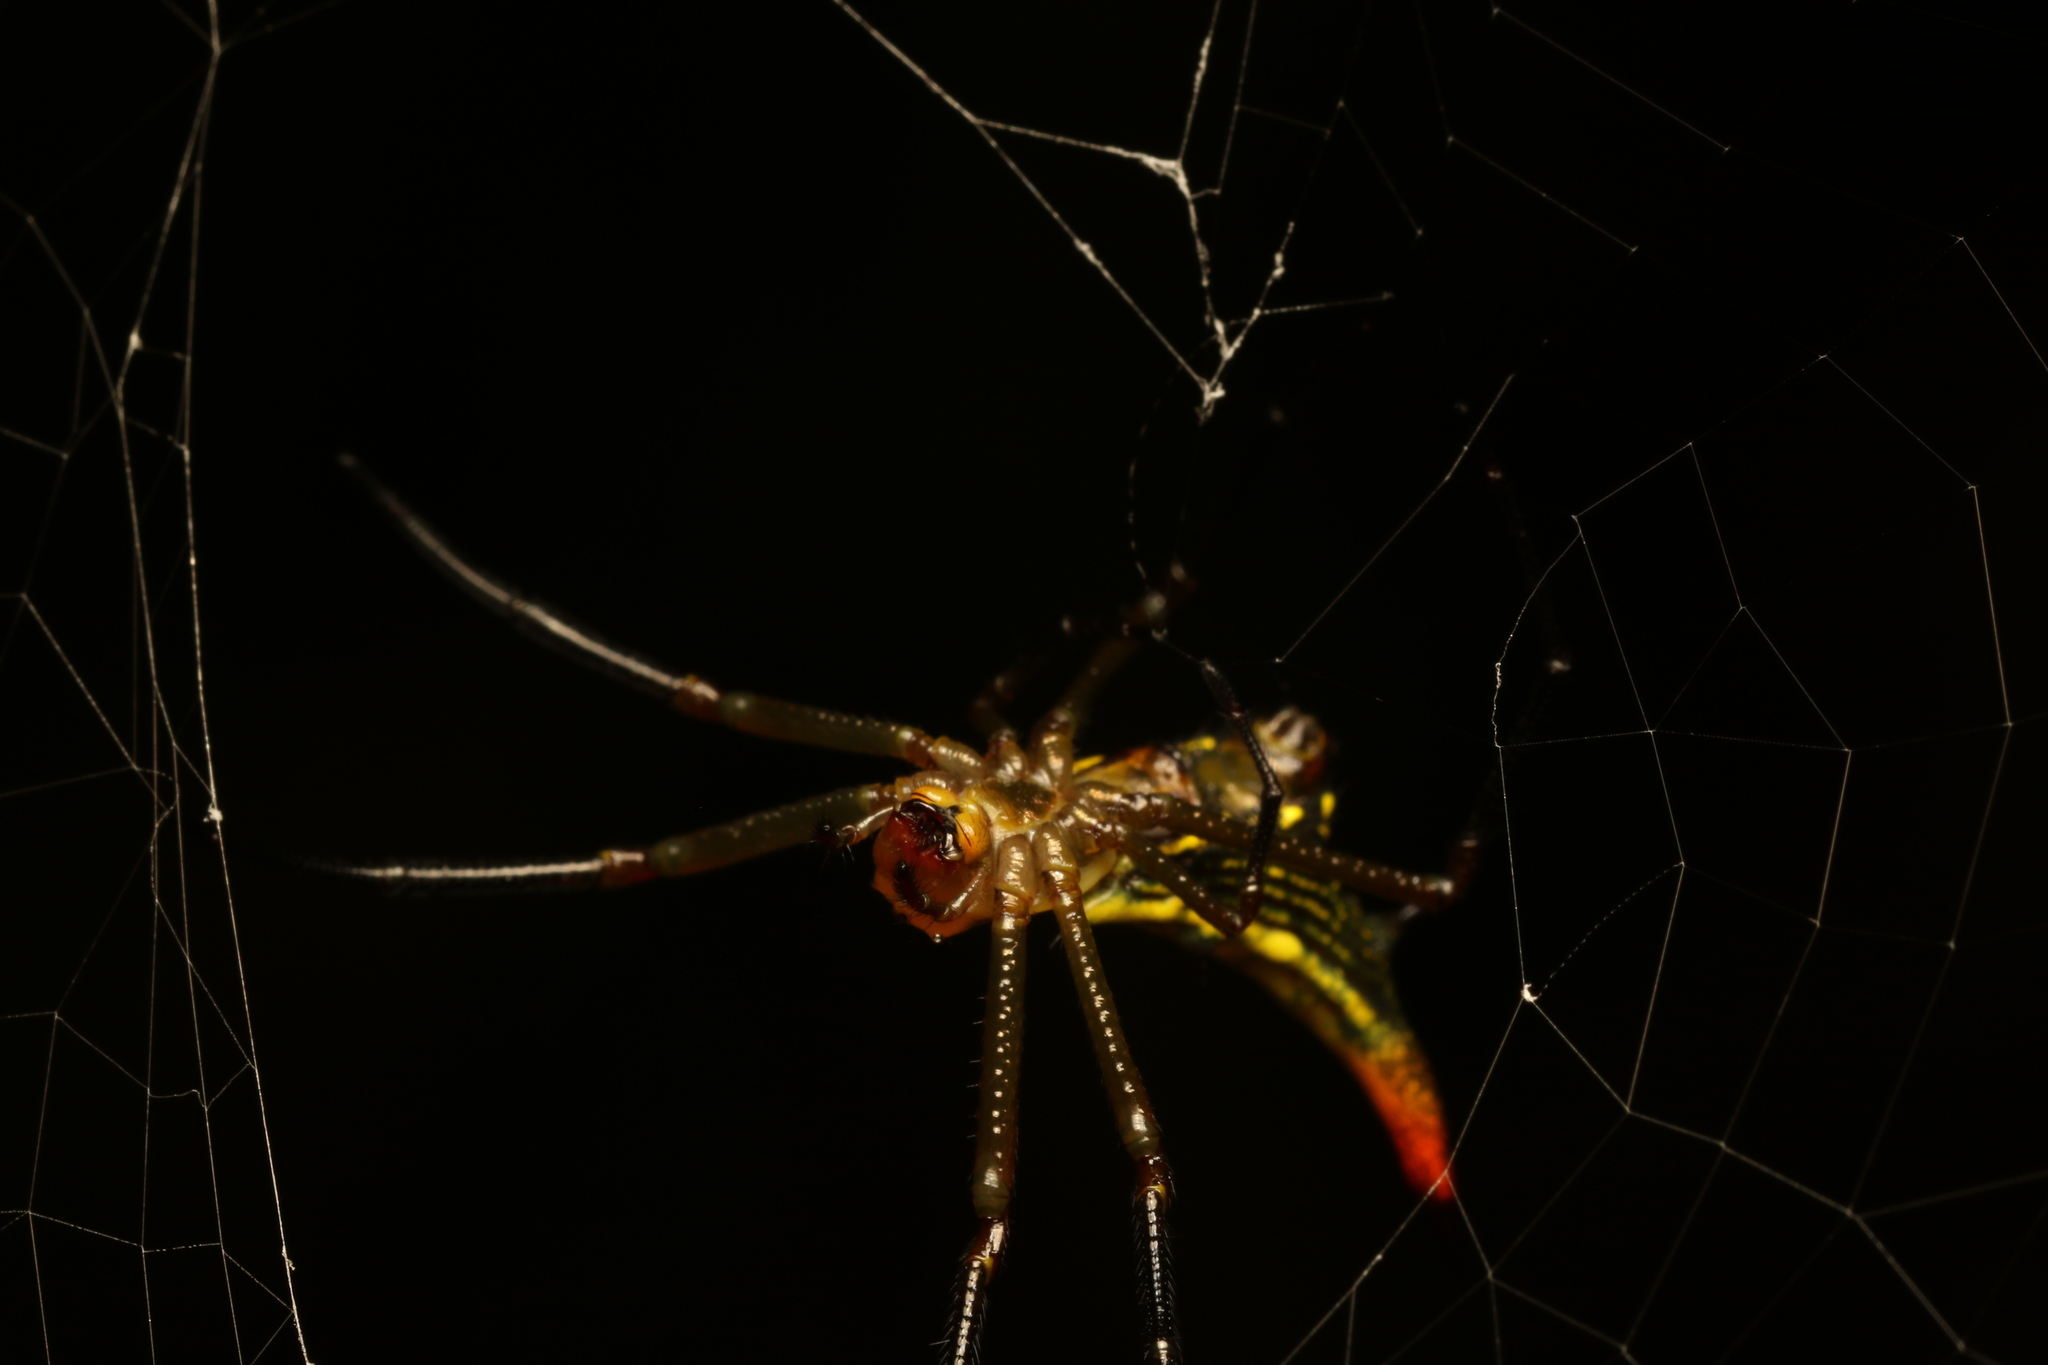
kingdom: Animalia
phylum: Arthropoda
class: Arachnida
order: Araneae
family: Araneidae
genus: Micrathena
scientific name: Micrathena crassispina
